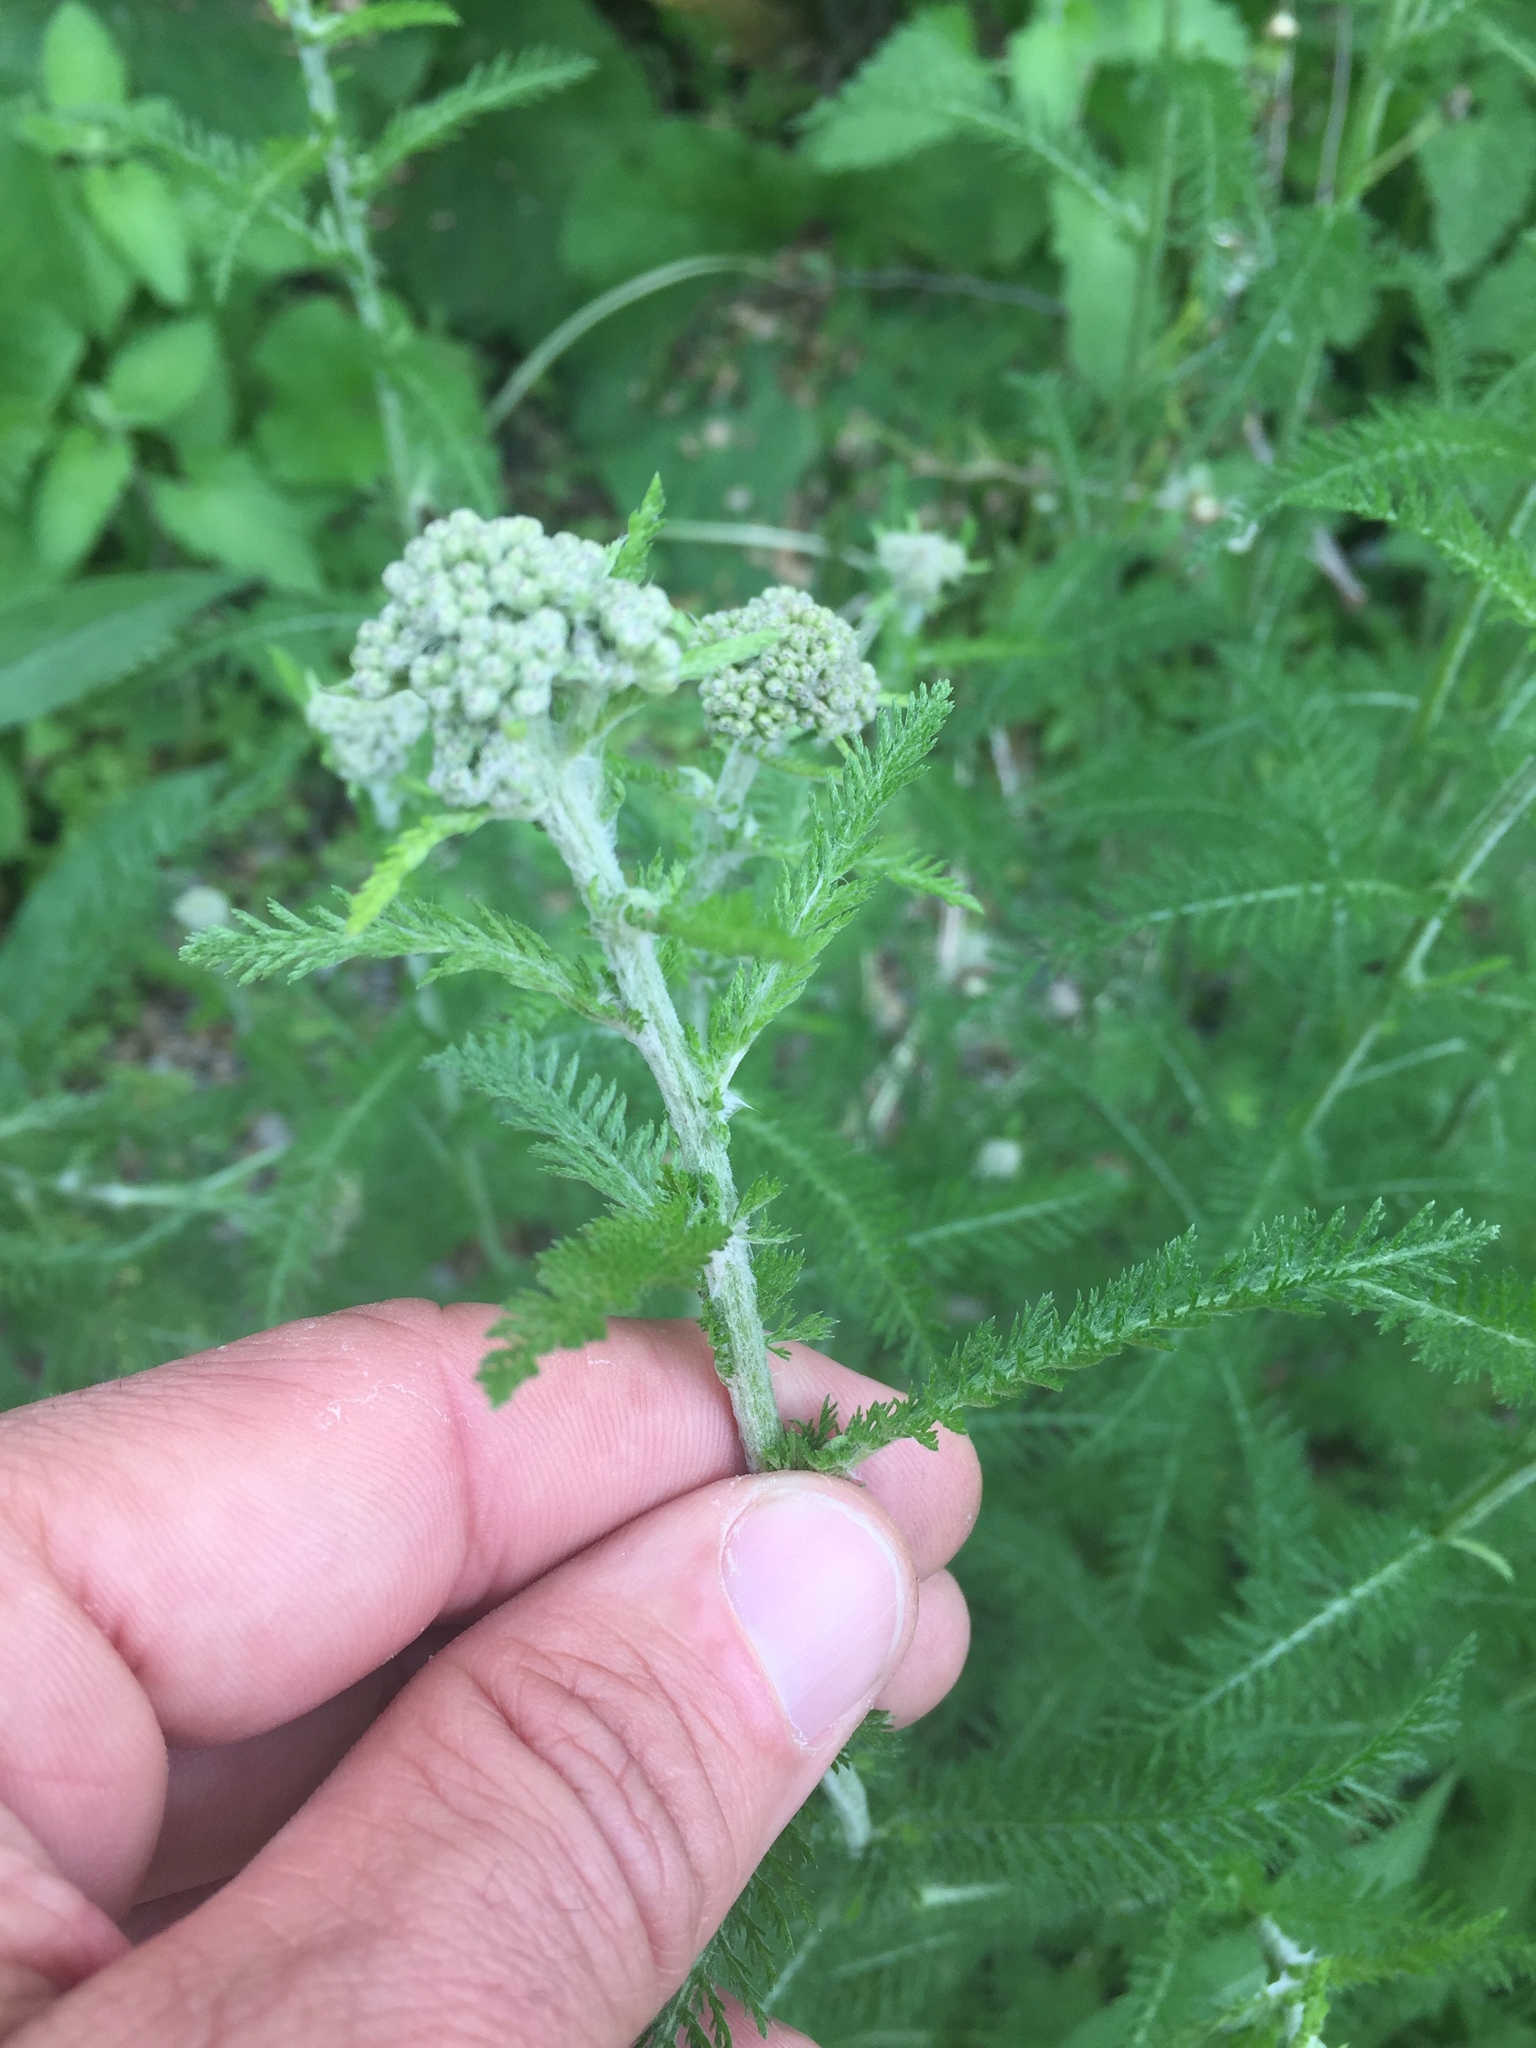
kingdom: Plantae
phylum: Tracheophyta
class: Magnoliopsida
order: Asterales
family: Asteraceae
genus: Achillea
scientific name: Achillea millefolium
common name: Yarrow
